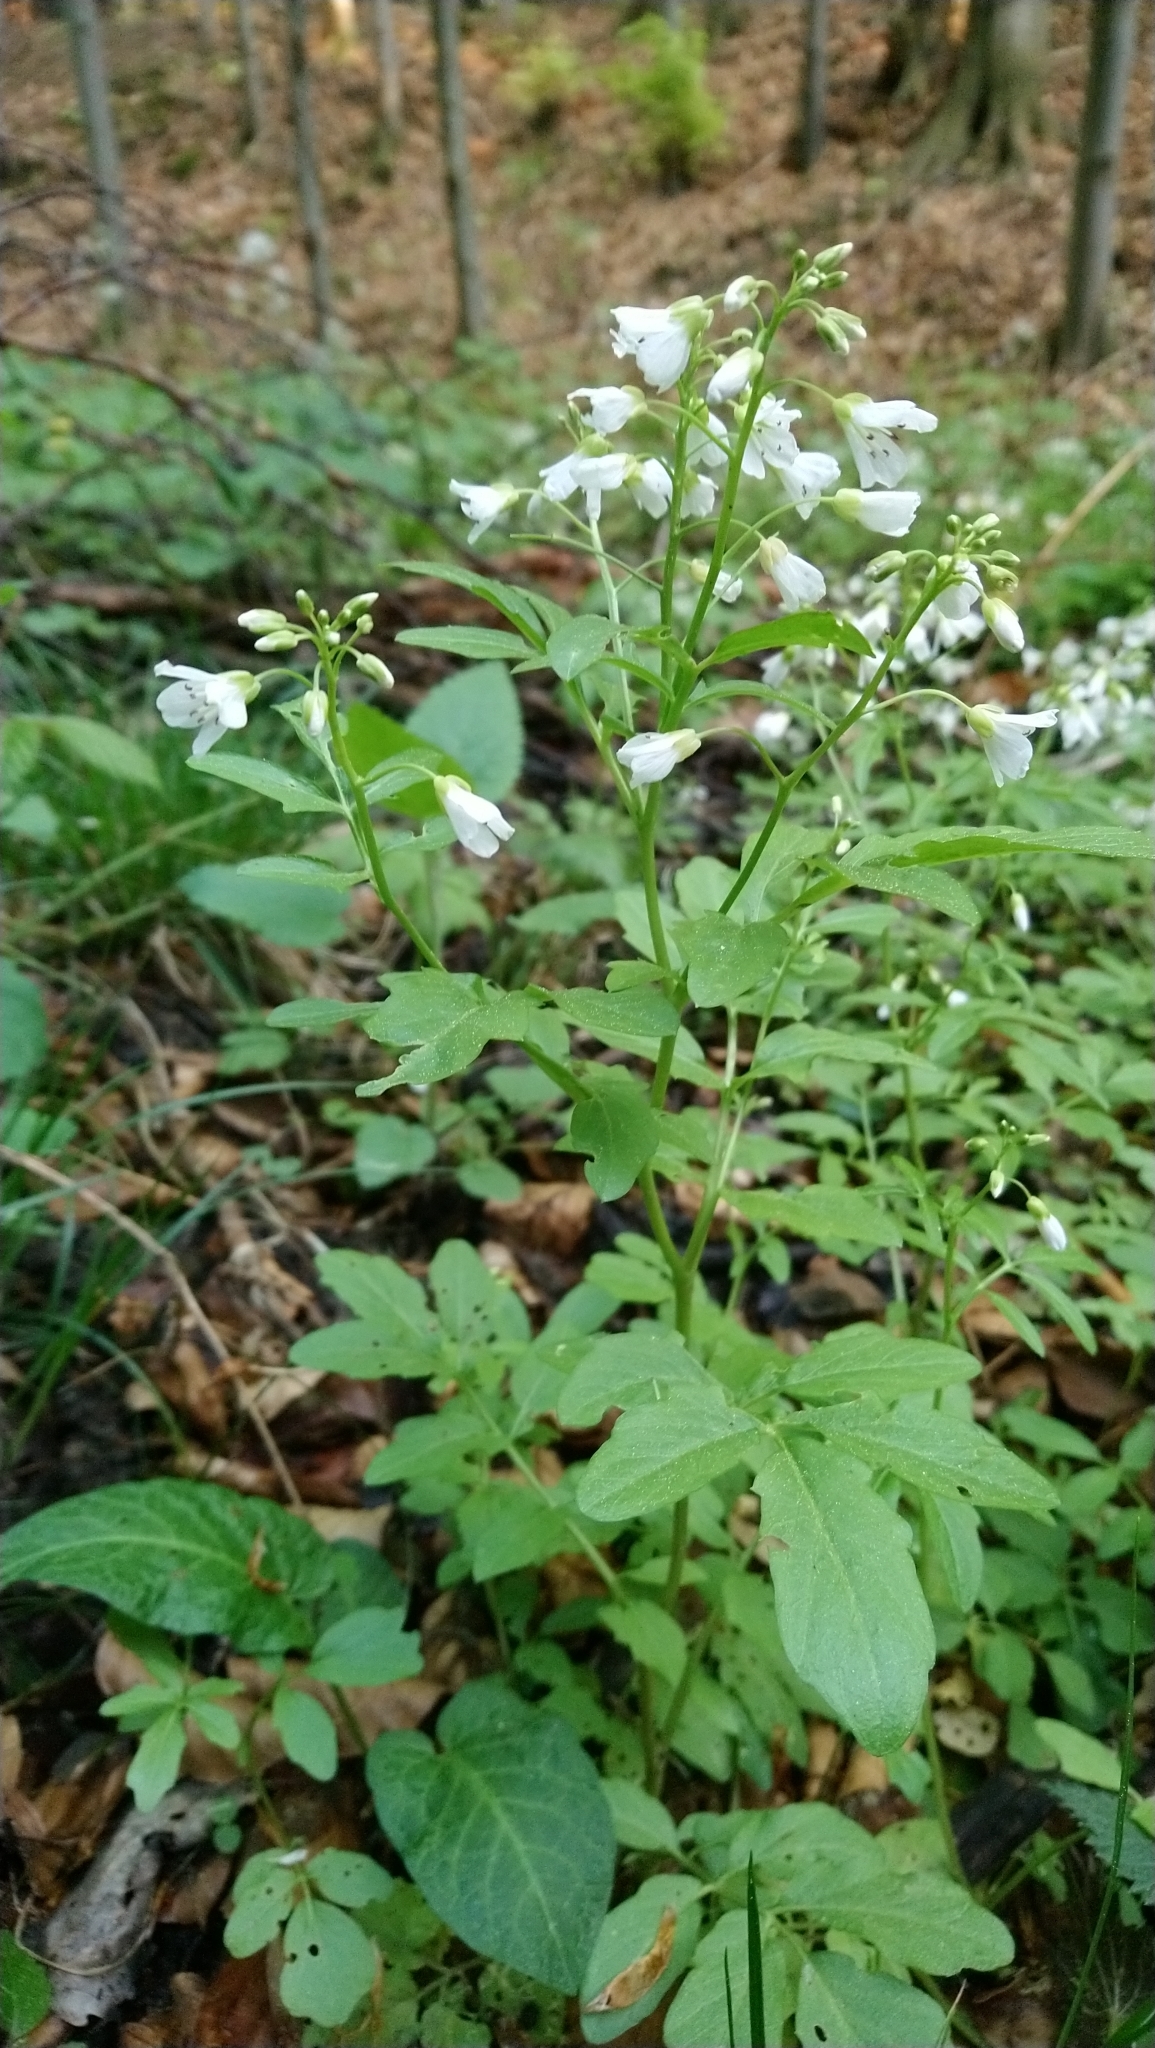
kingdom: Plantae
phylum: Tracheophyta
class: Magnoliopsida
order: Brassicales
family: Brassicaceae
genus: Cardamine
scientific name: Cardamine amara
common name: Large bitter-cress
